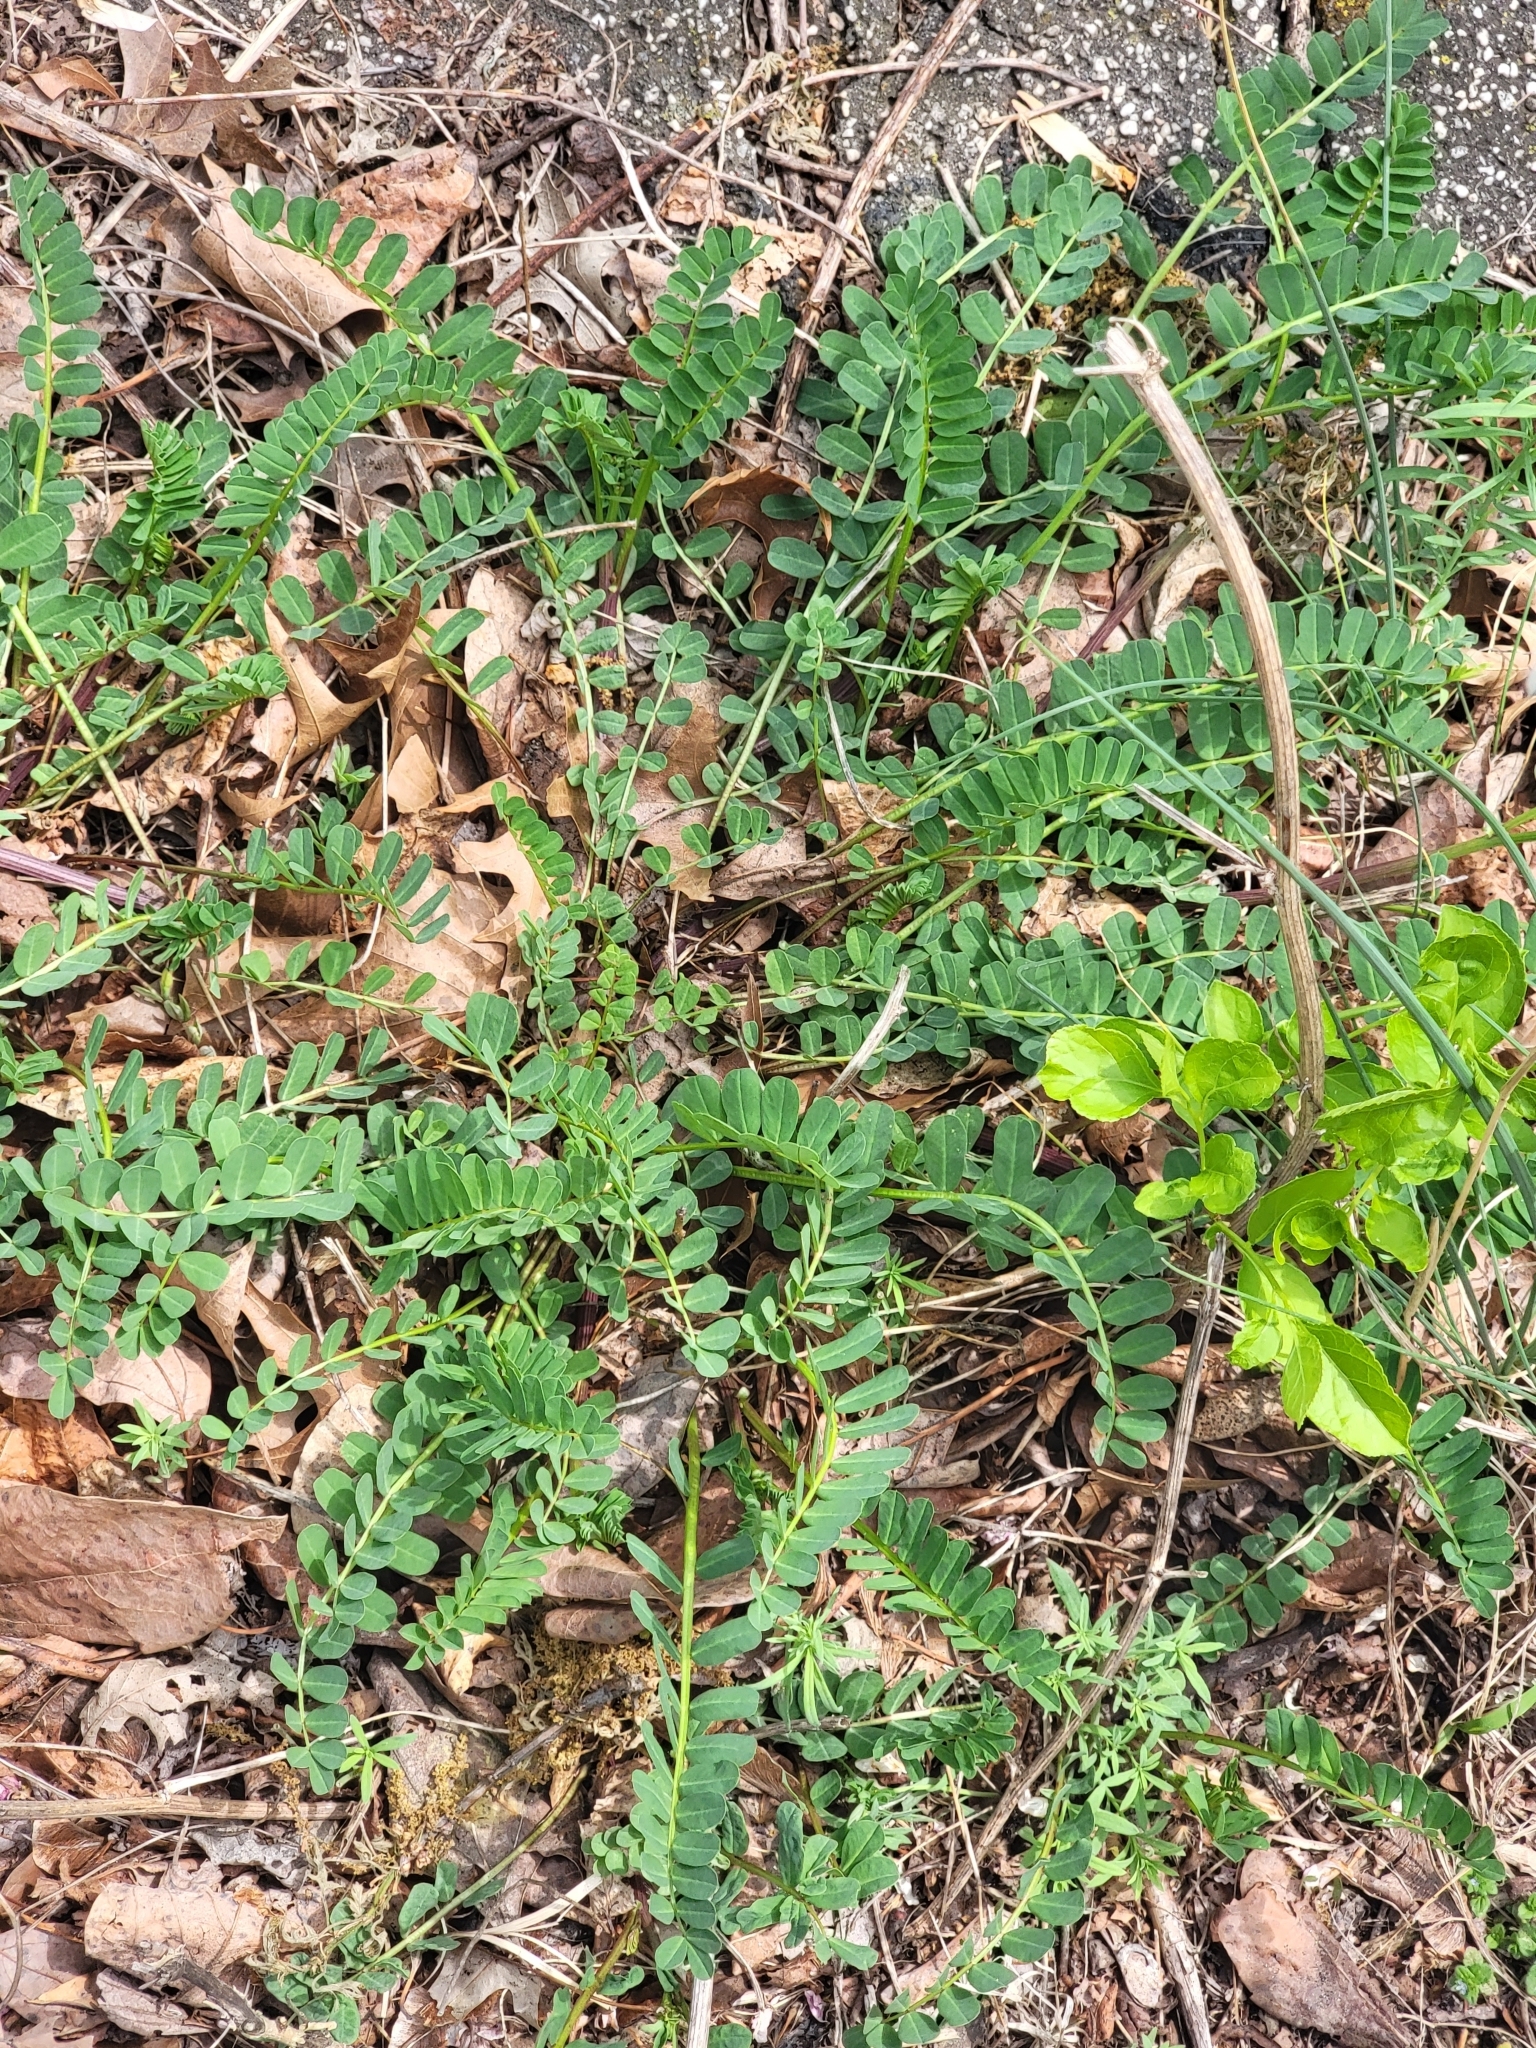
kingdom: Plantae
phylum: Tracheophyta
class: Magnoliopsida
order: Fabales
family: Fabaceae
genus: Coronilla
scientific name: Coronilla varia
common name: Crownvetch
